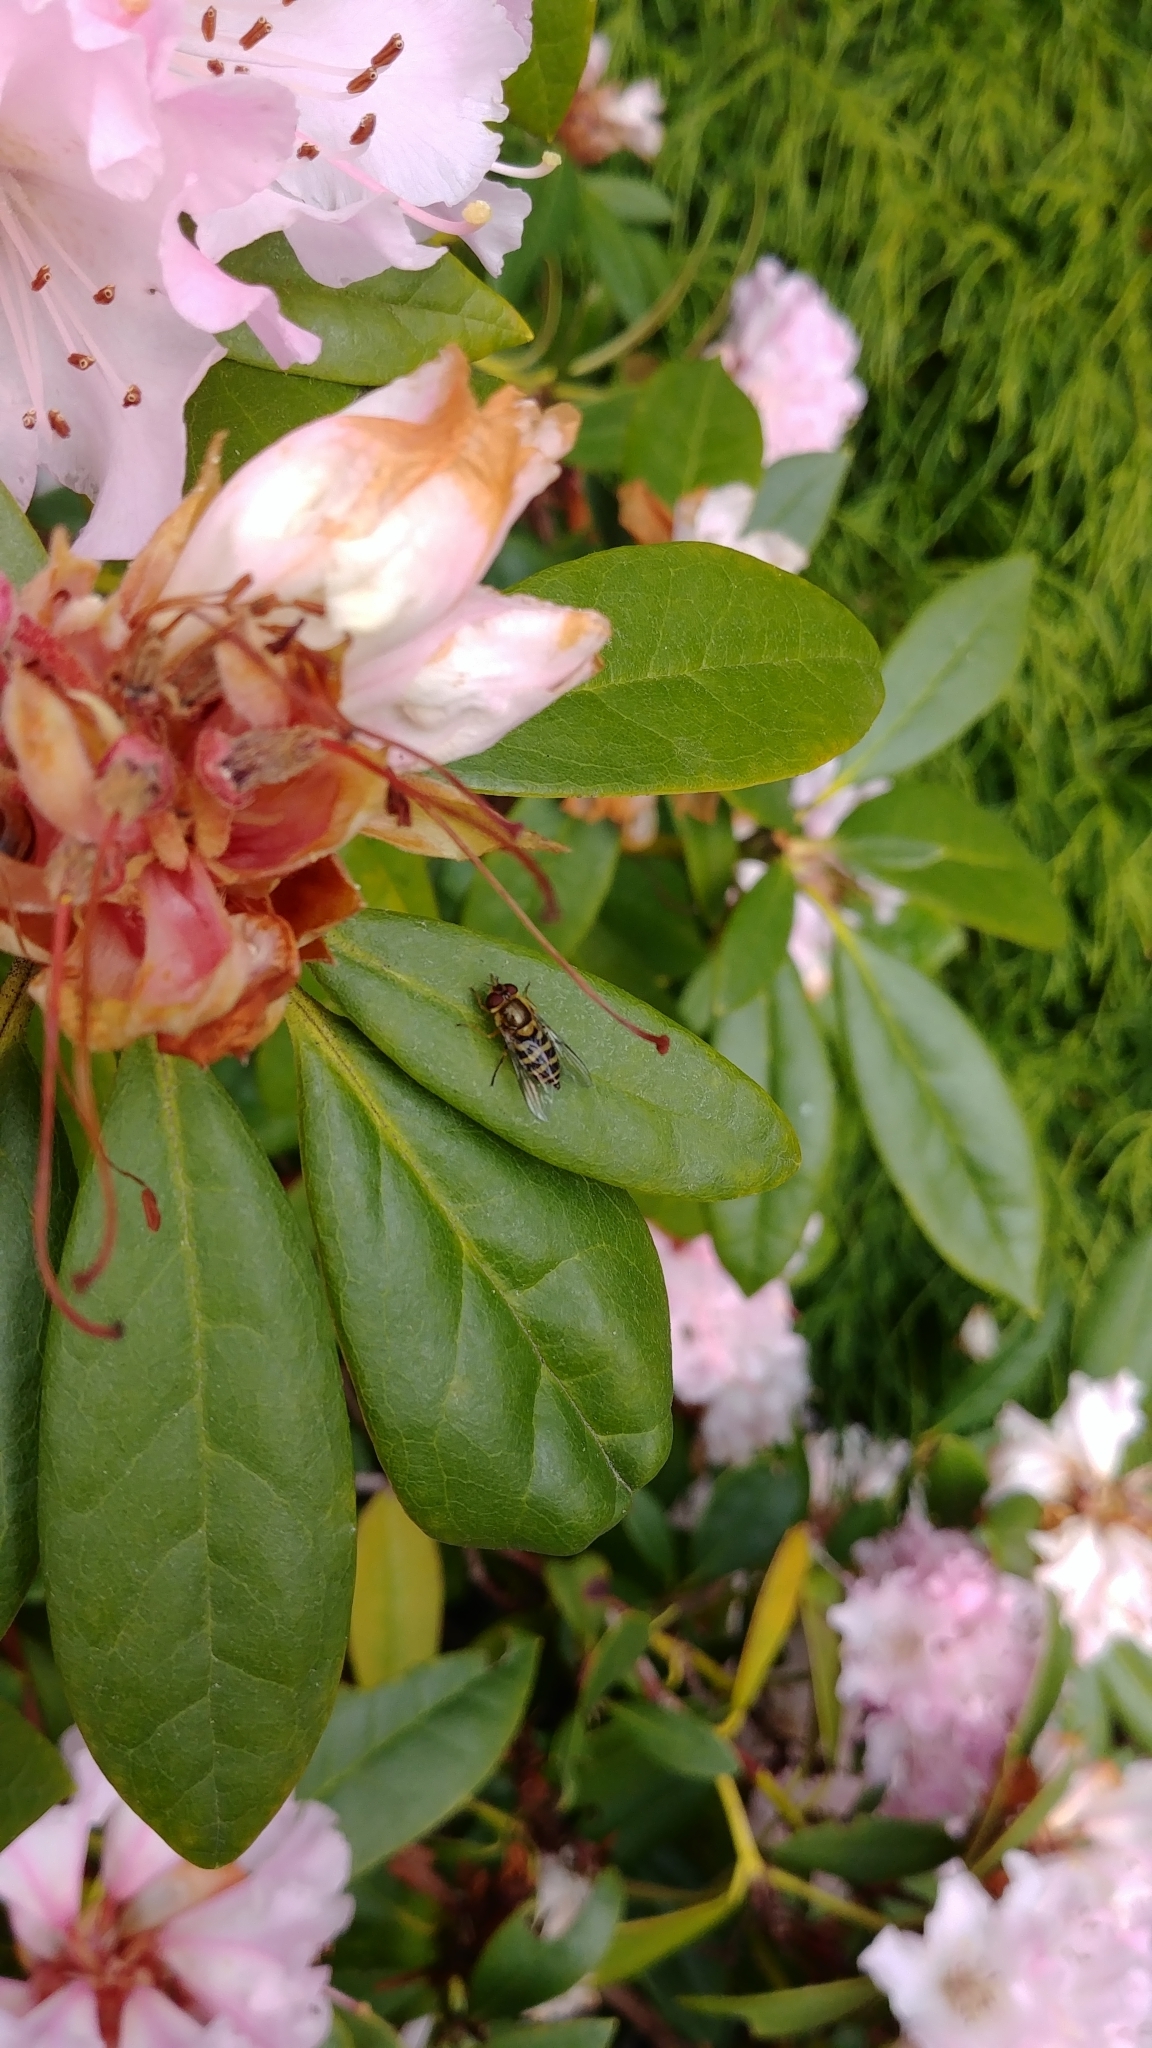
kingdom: Animalia
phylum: Arthropoda
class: Insecta
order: Diptera
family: Syrphidae
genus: Syrphus
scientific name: Syrphus
